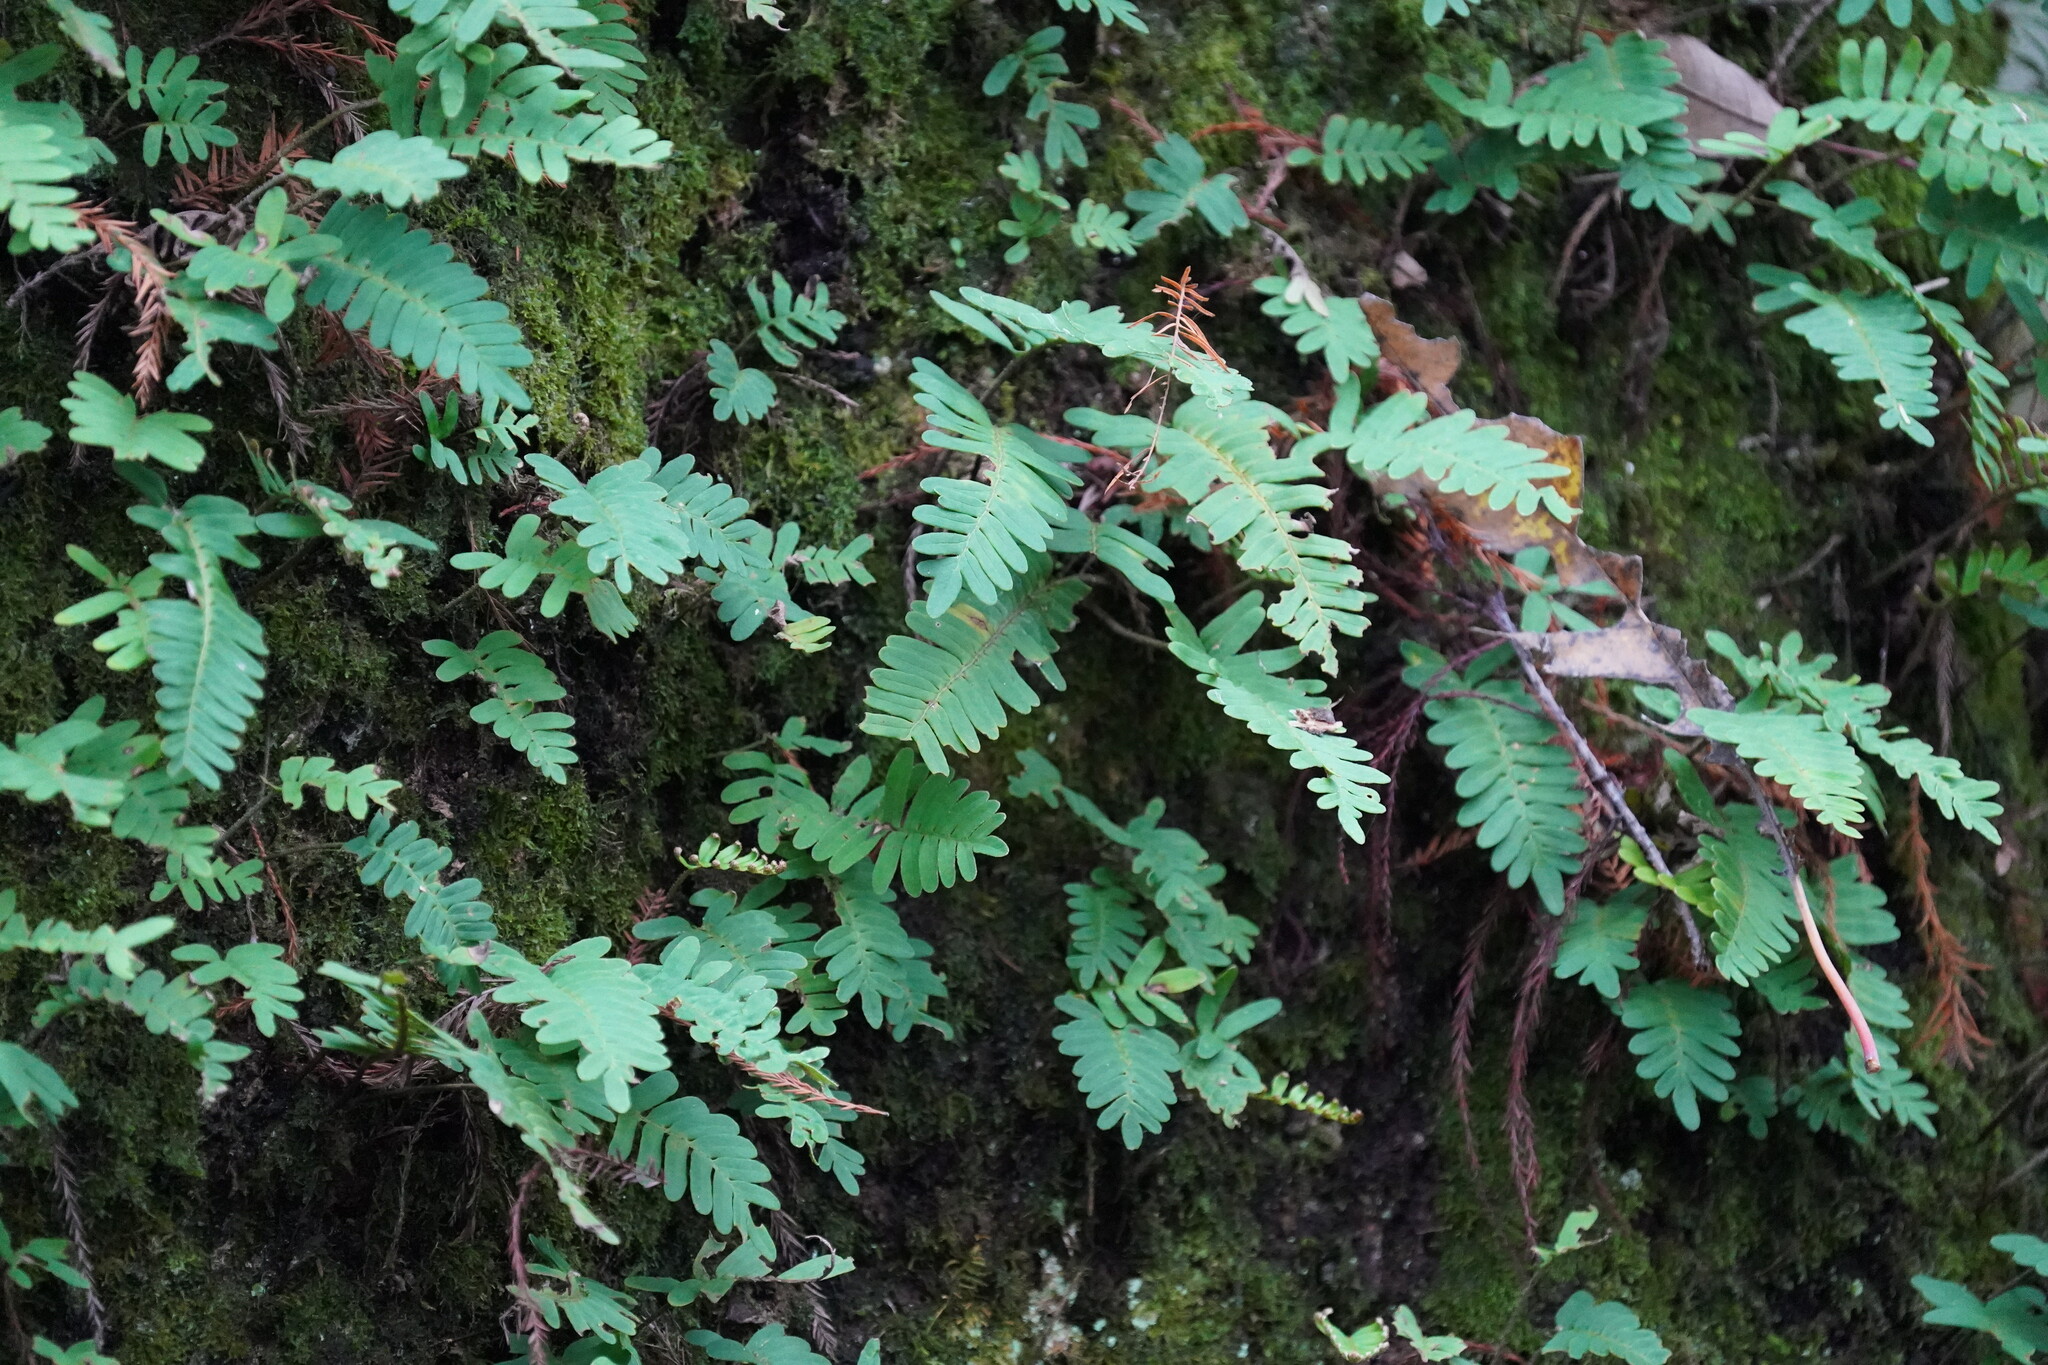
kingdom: Plantae
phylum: Tracheophyta
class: Polypodiopsida
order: Polypodiales
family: Polypodiaceae
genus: Pleopeltis
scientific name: Pleopeltis michauxiana
